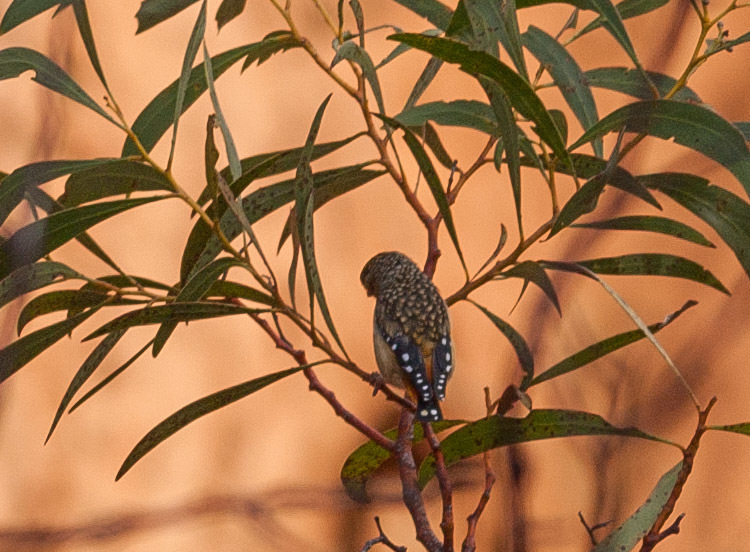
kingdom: Animalia
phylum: Chordata
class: Aves
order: Passeriformes
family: Pardalotidae
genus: Pardalotus
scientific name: Pardalotus punctatus
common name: Spotted pardalote
